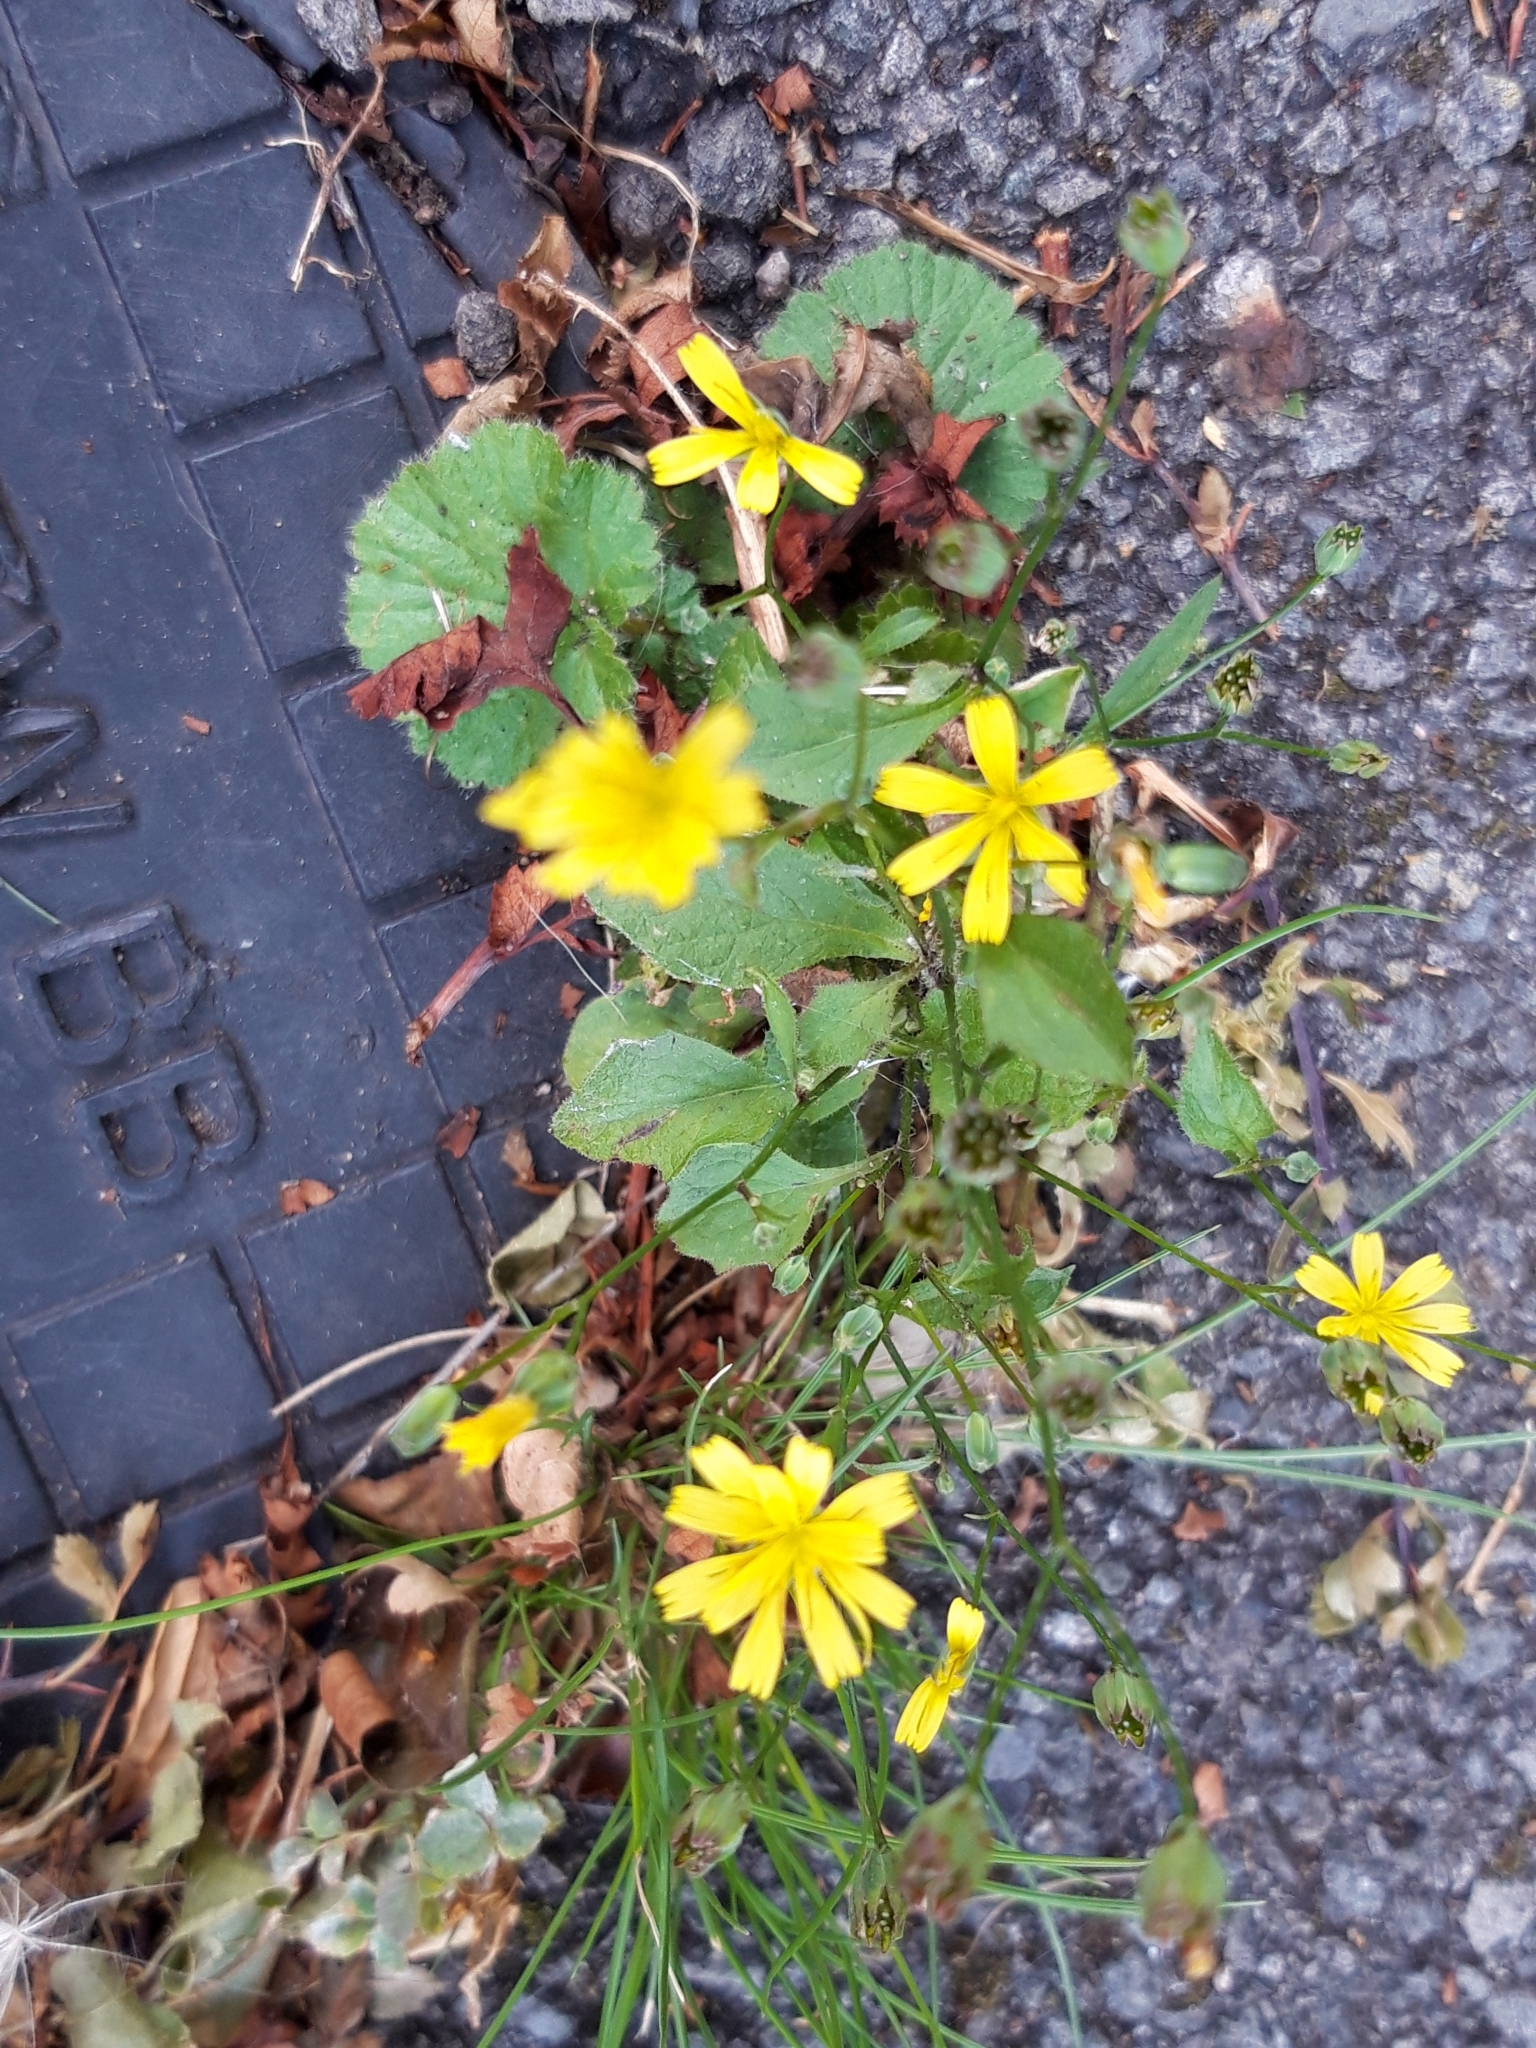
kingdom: Plantae
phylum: Tracheophyta
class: Magnoliopsida
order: Asterales
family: Asteraceae
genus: Lapsana
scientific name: Lapsana communis
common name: Nipplewort
